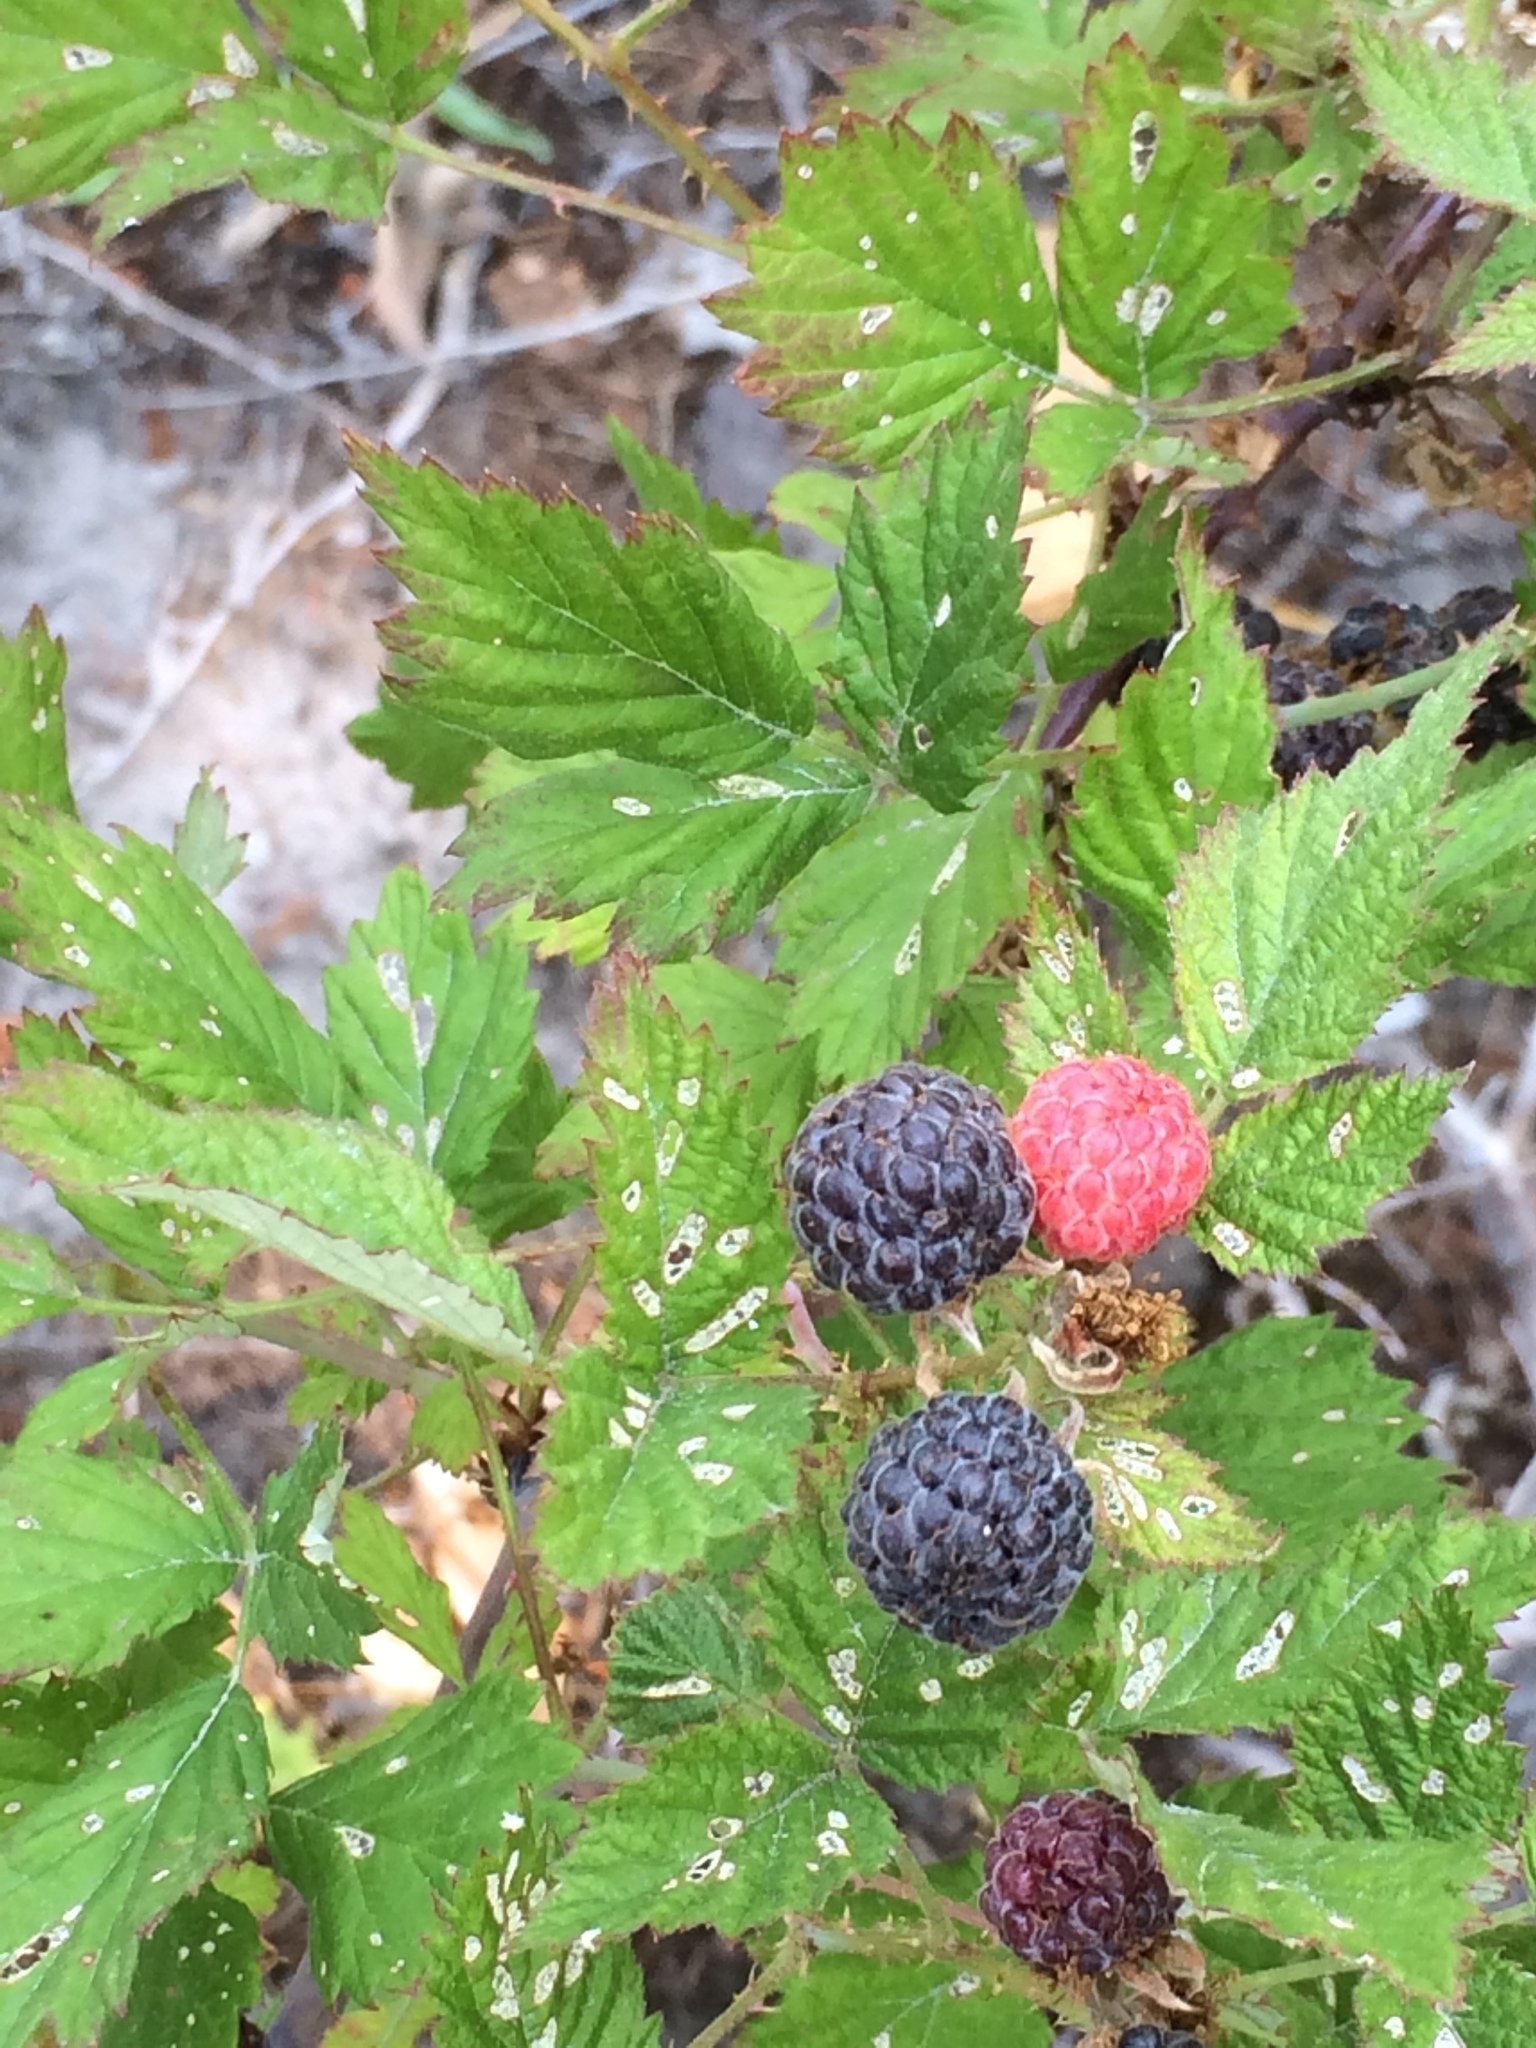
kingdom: Plantae
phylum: Tracheophyta
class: Magnoliopsida
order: Rosales
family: Rosaceae
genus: Rubus
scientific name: Rubus leucodermis
